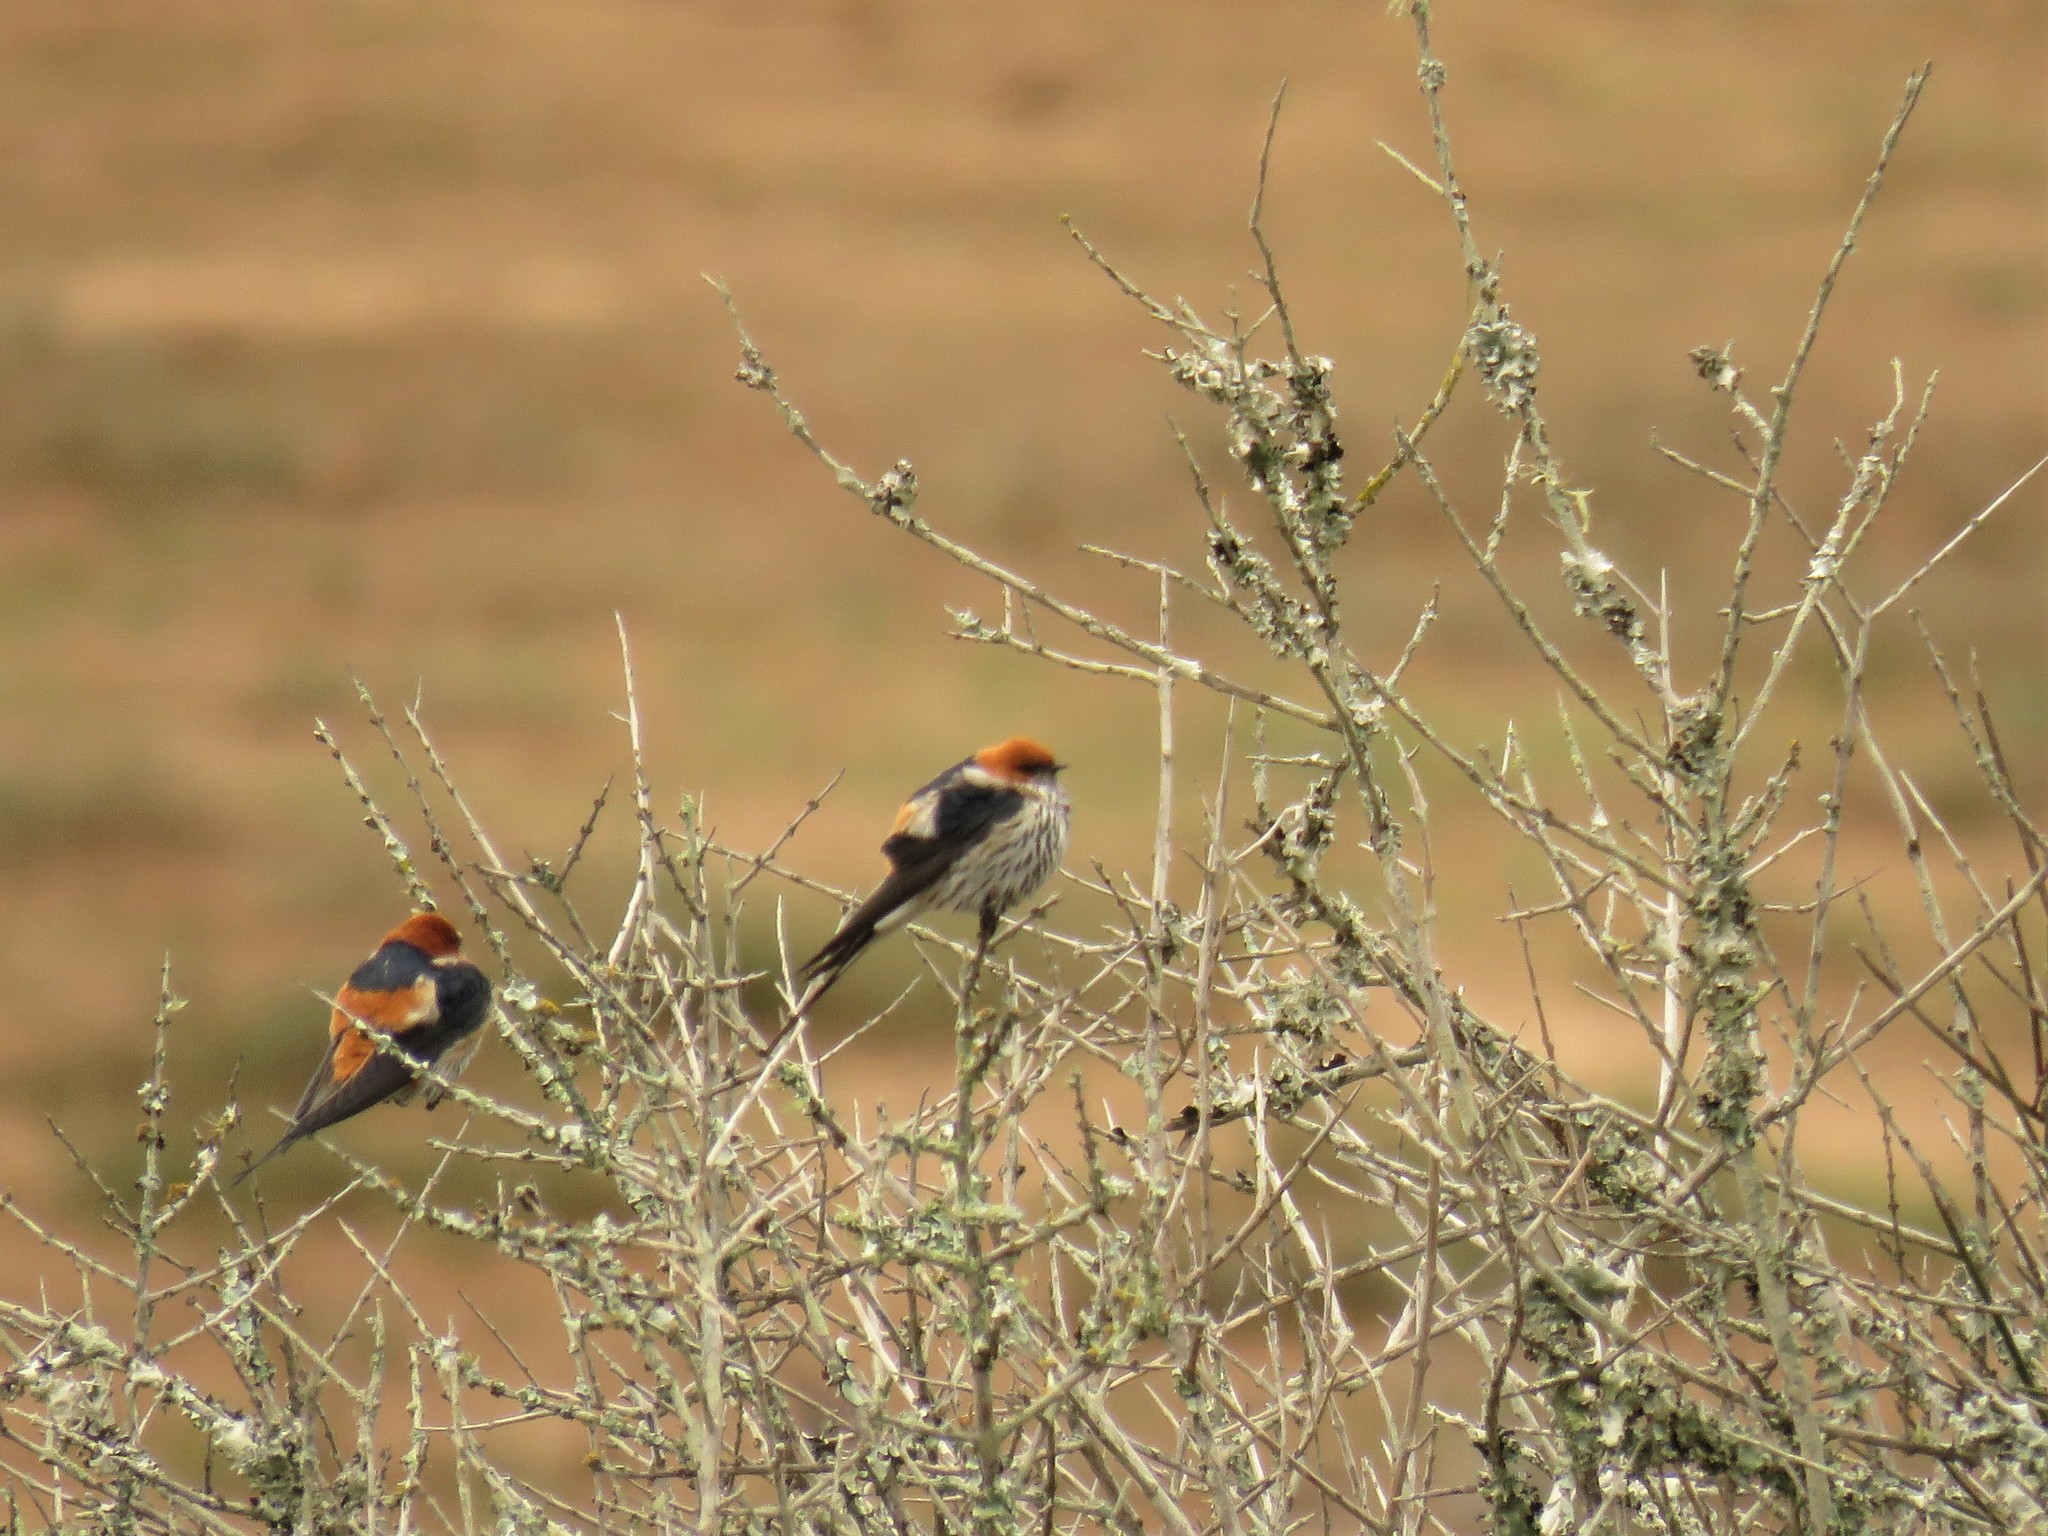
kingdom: Animalia
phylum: Chordata
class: Aves
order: Passeriformes
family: Hirundinidae
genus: Cecropis
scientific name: Cecropis abyssinica
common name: Lesser striped-swallow
